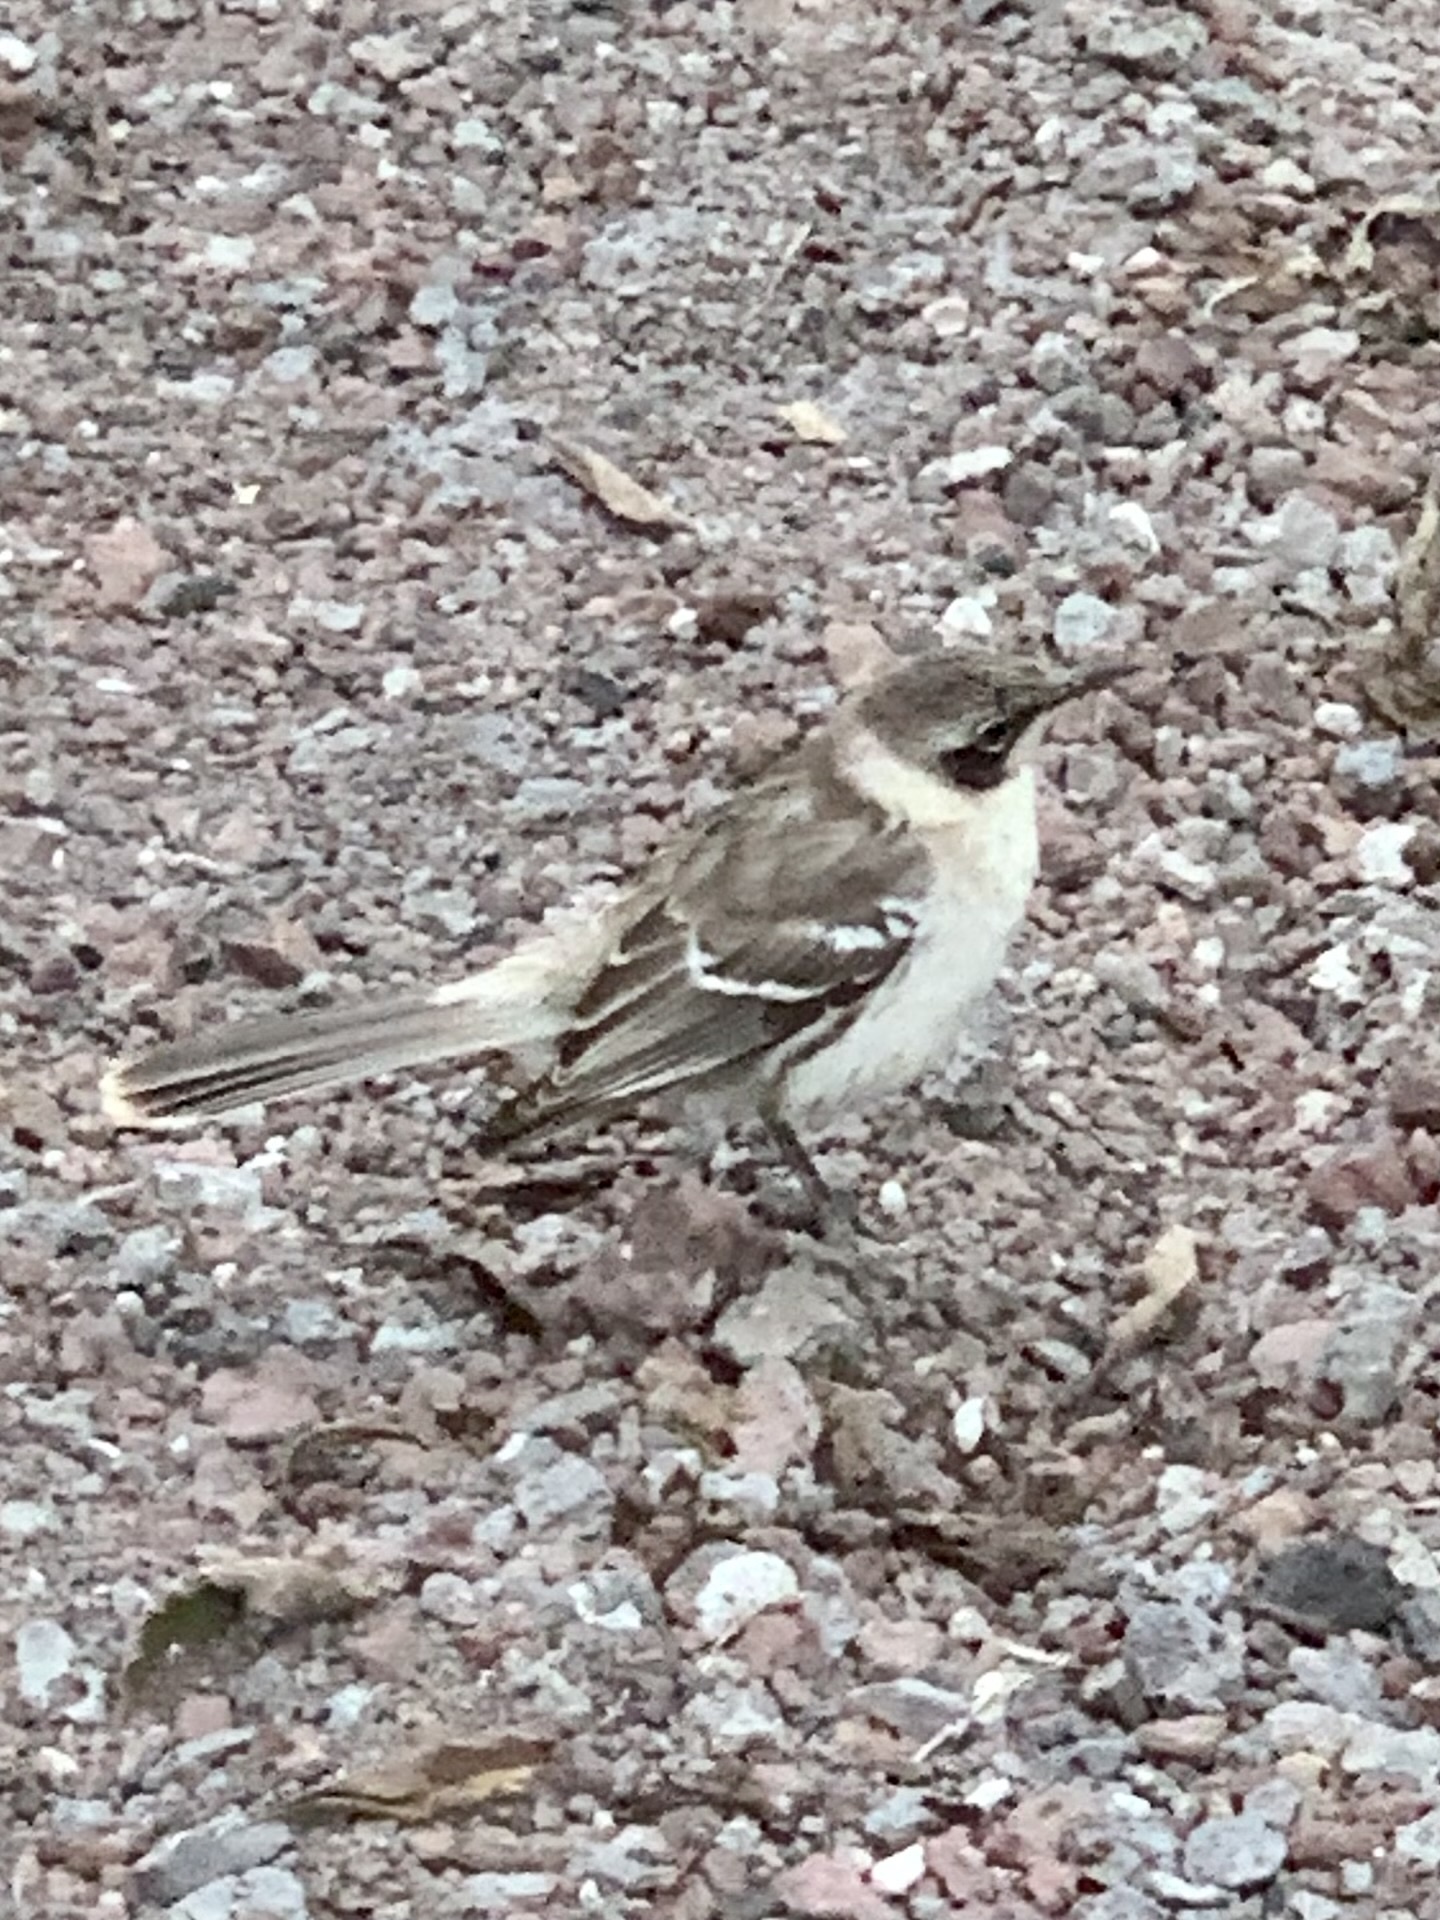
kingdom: Animalia
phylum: Chordata
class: Aves
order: Passeriformes
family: Mimidae
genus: Mimus
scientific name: Mimus parvulus
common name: Galapagos mockingbird
